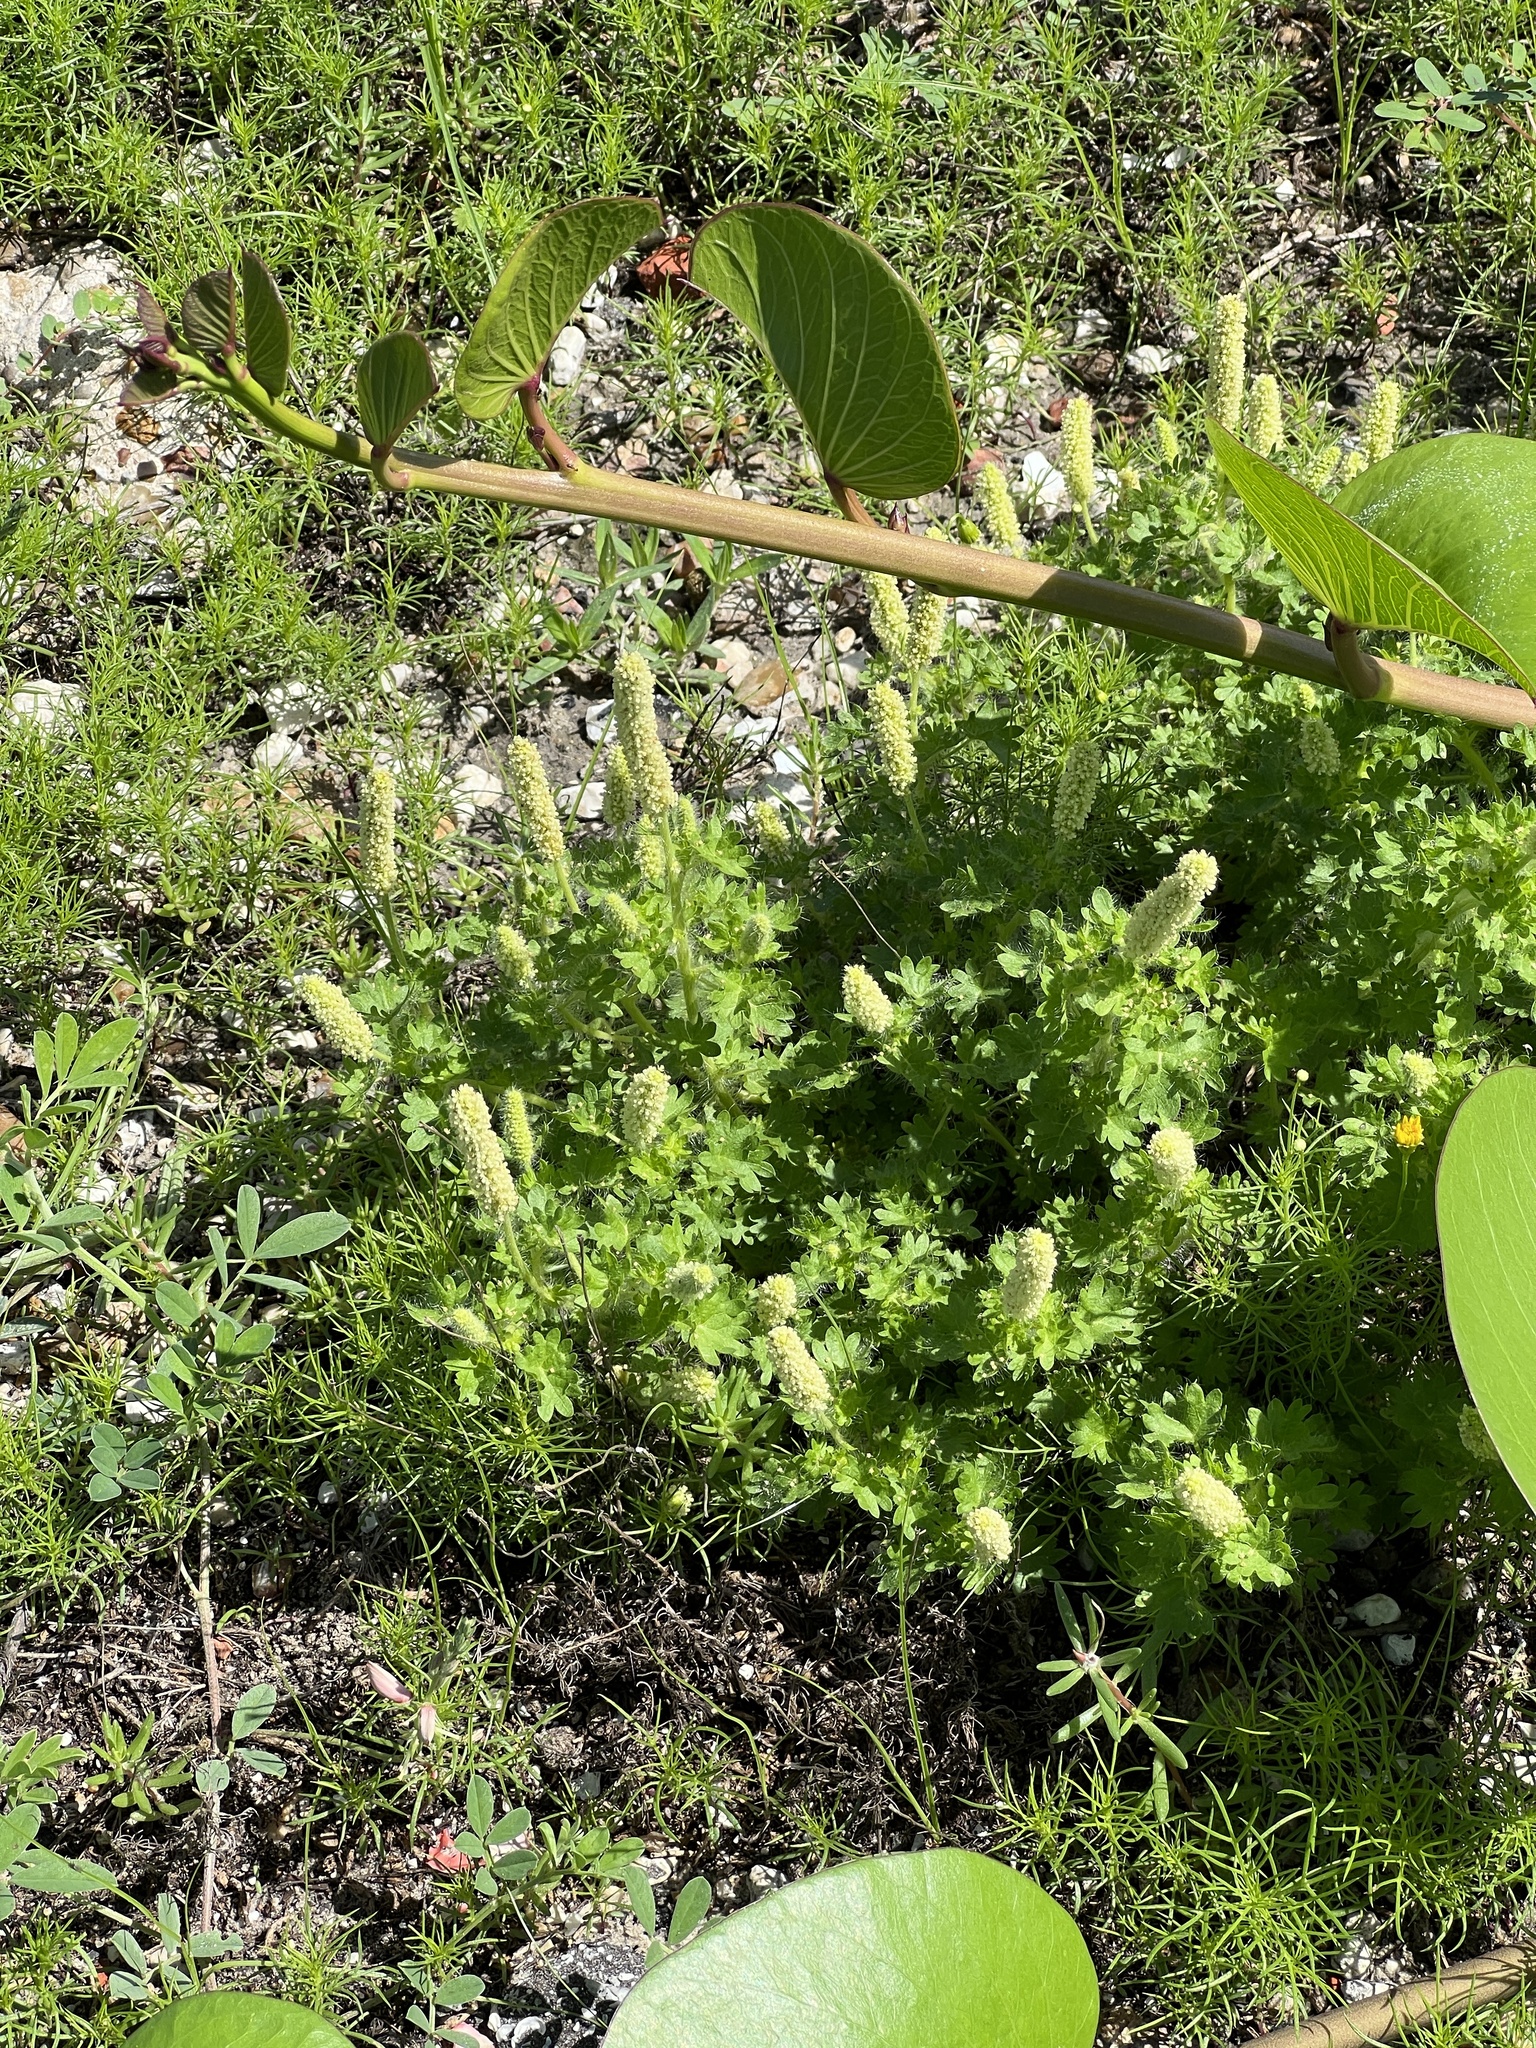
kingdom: Plantae
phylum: Tracheophyta
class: Magnoliopsida
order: Malpighiales
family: Euphorbiaceae
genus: Acalypha
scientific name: Acalypha radians
